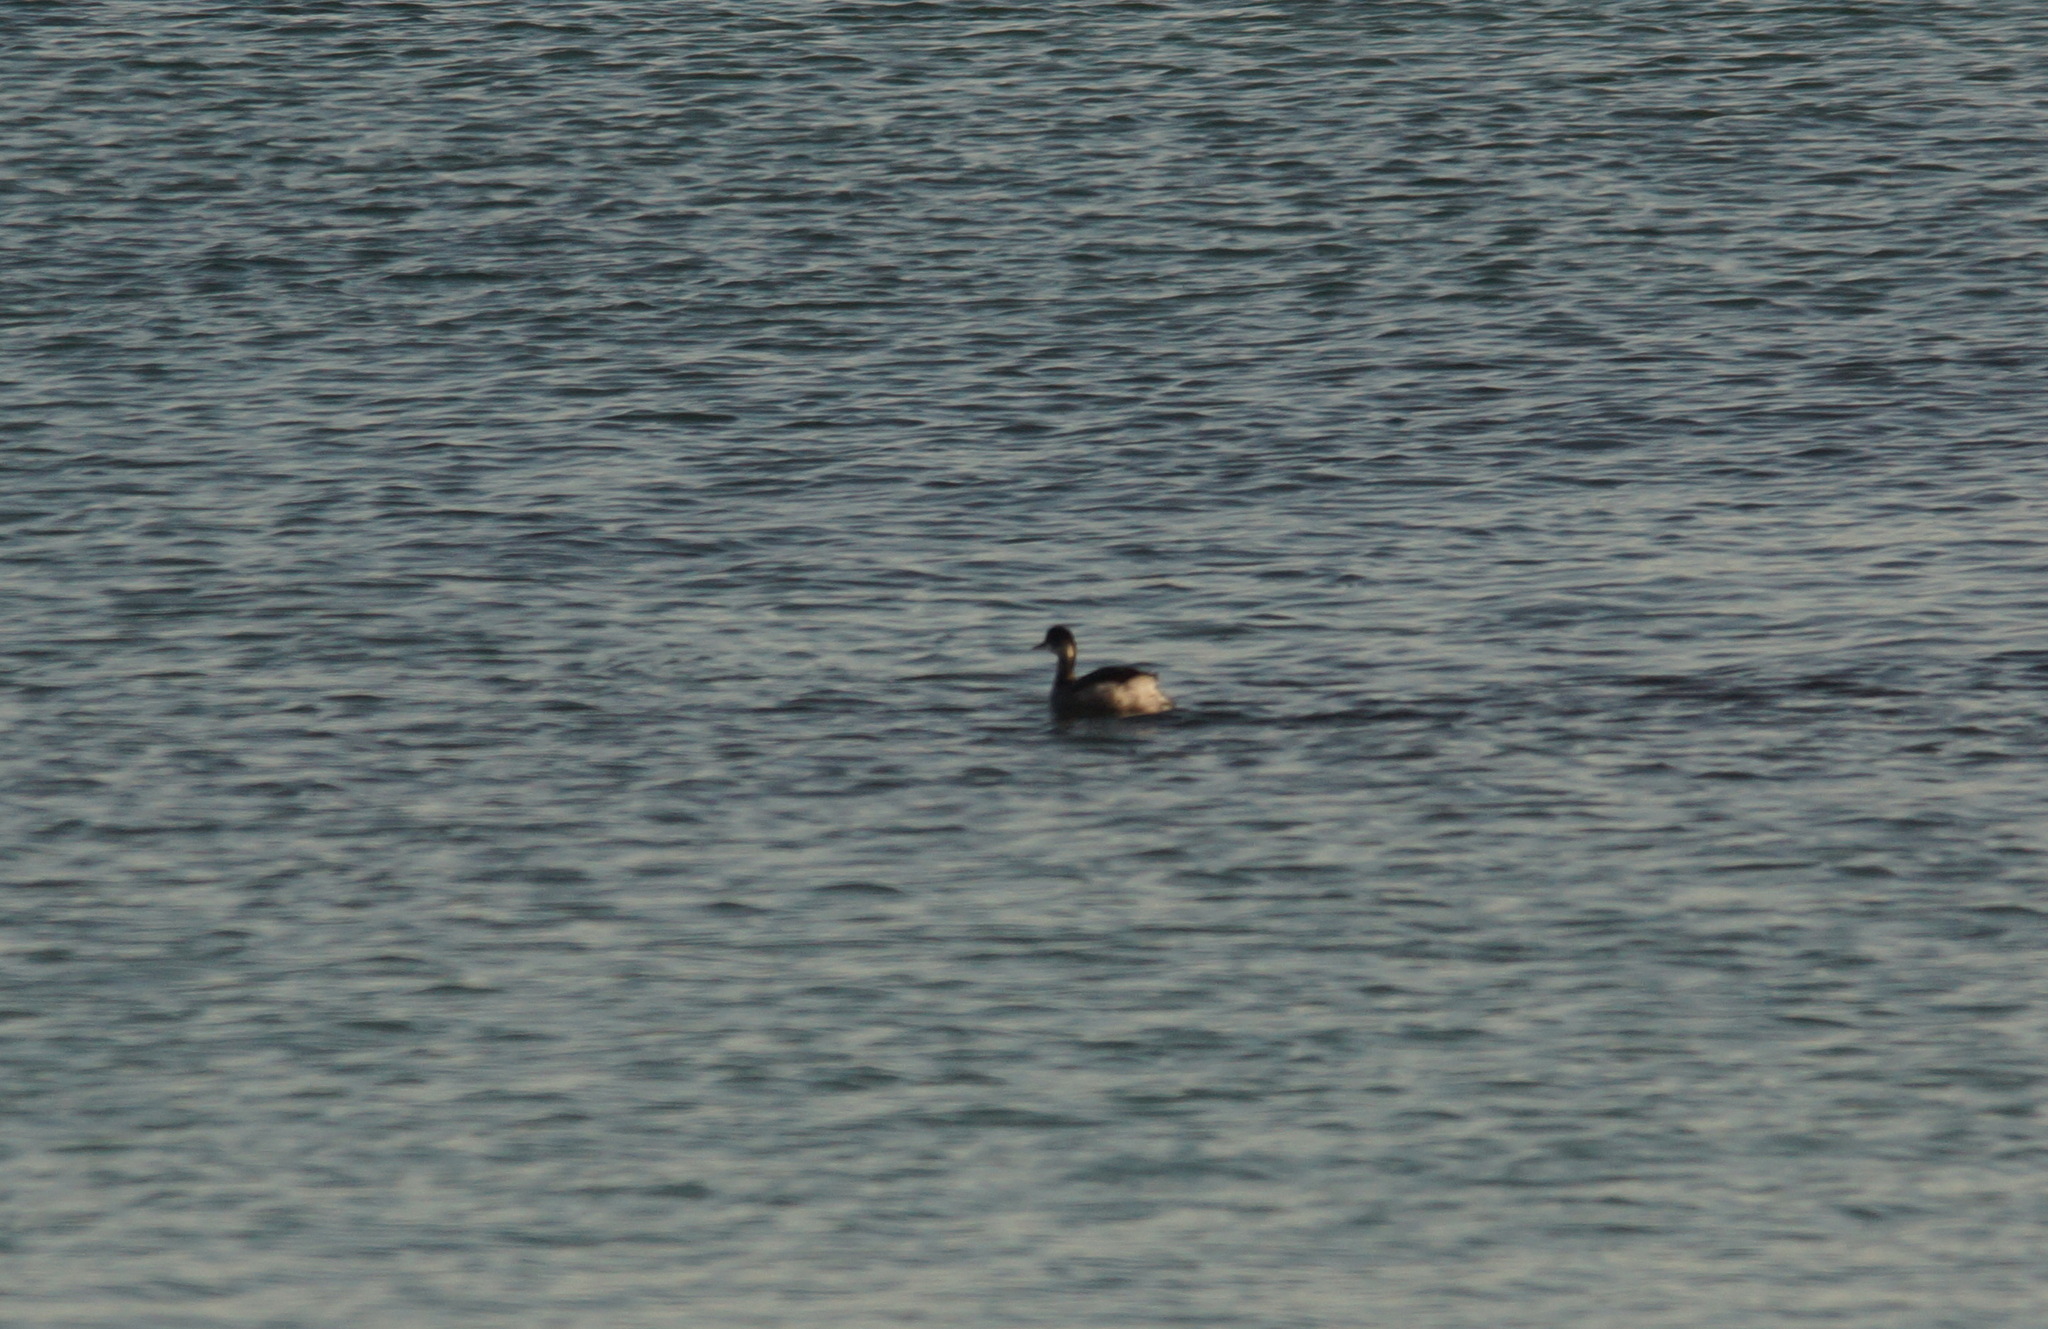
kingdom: Animalia
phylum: Chordata
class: Aves
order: Podicipediformes
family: Podicipedidae
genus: Podiceps
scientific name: Podiceps nigricollis
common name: Black-necked grebe
